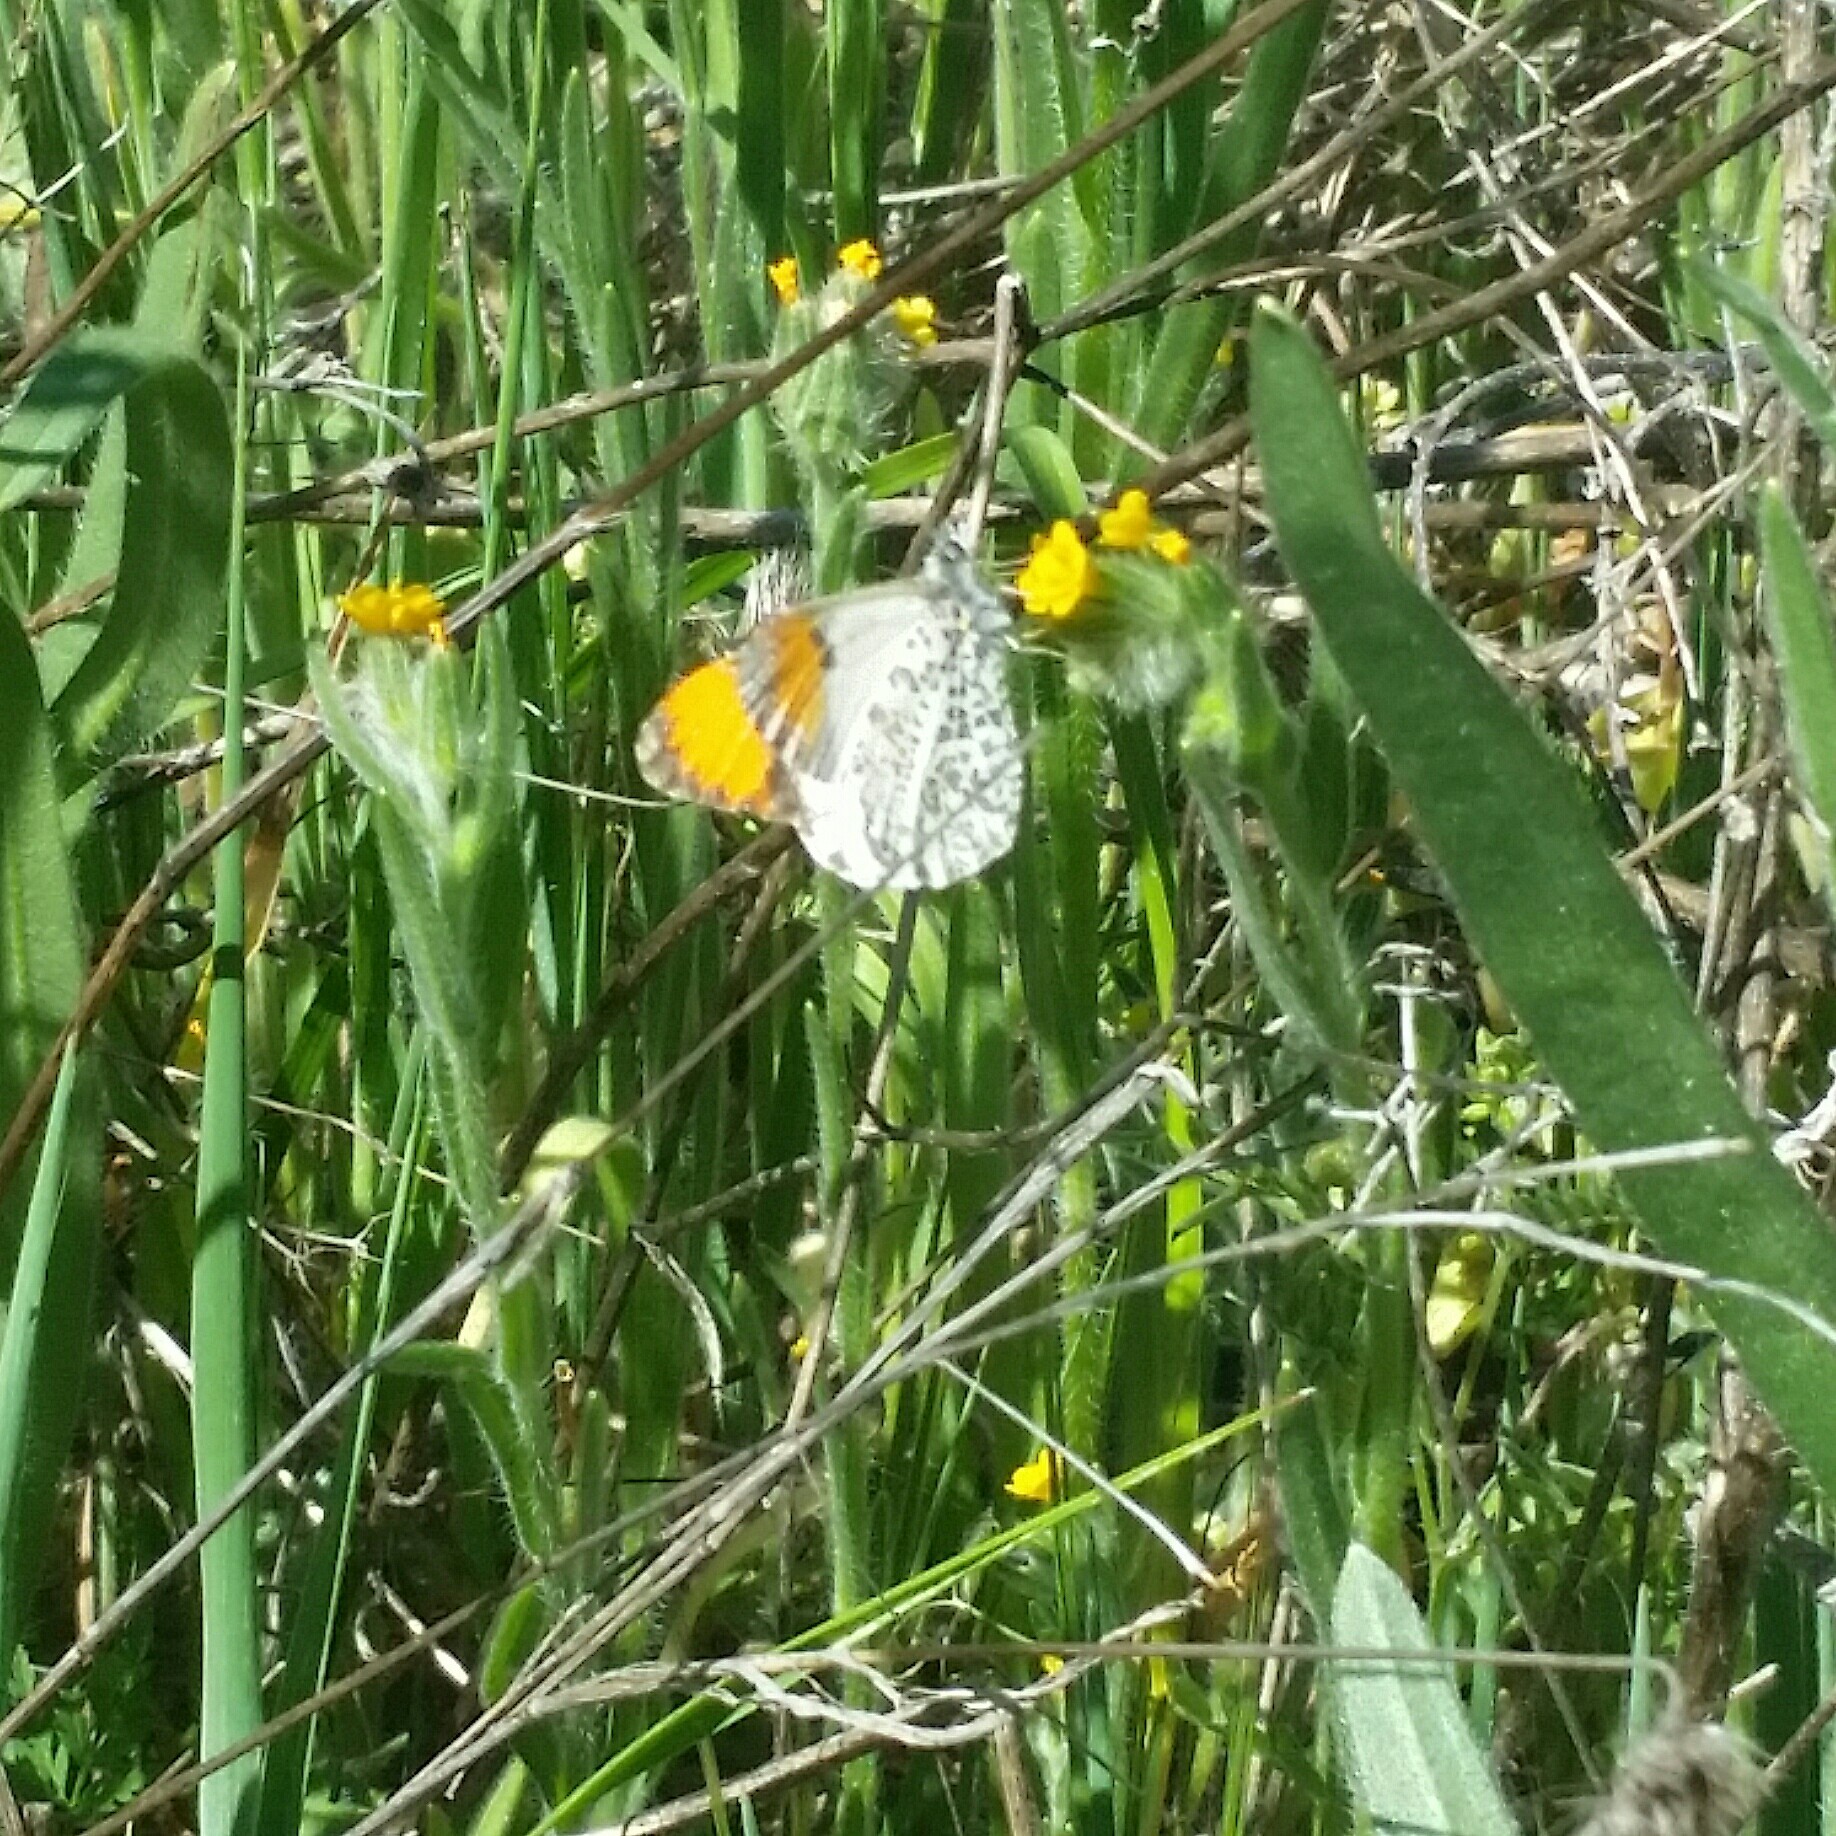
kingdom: Animalia
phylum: Arthropoda
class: Insecta
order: Lepidoptera
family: Pieridae
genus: Anthocharis
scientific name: Anthocharis sara
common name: Sara's orangetip
